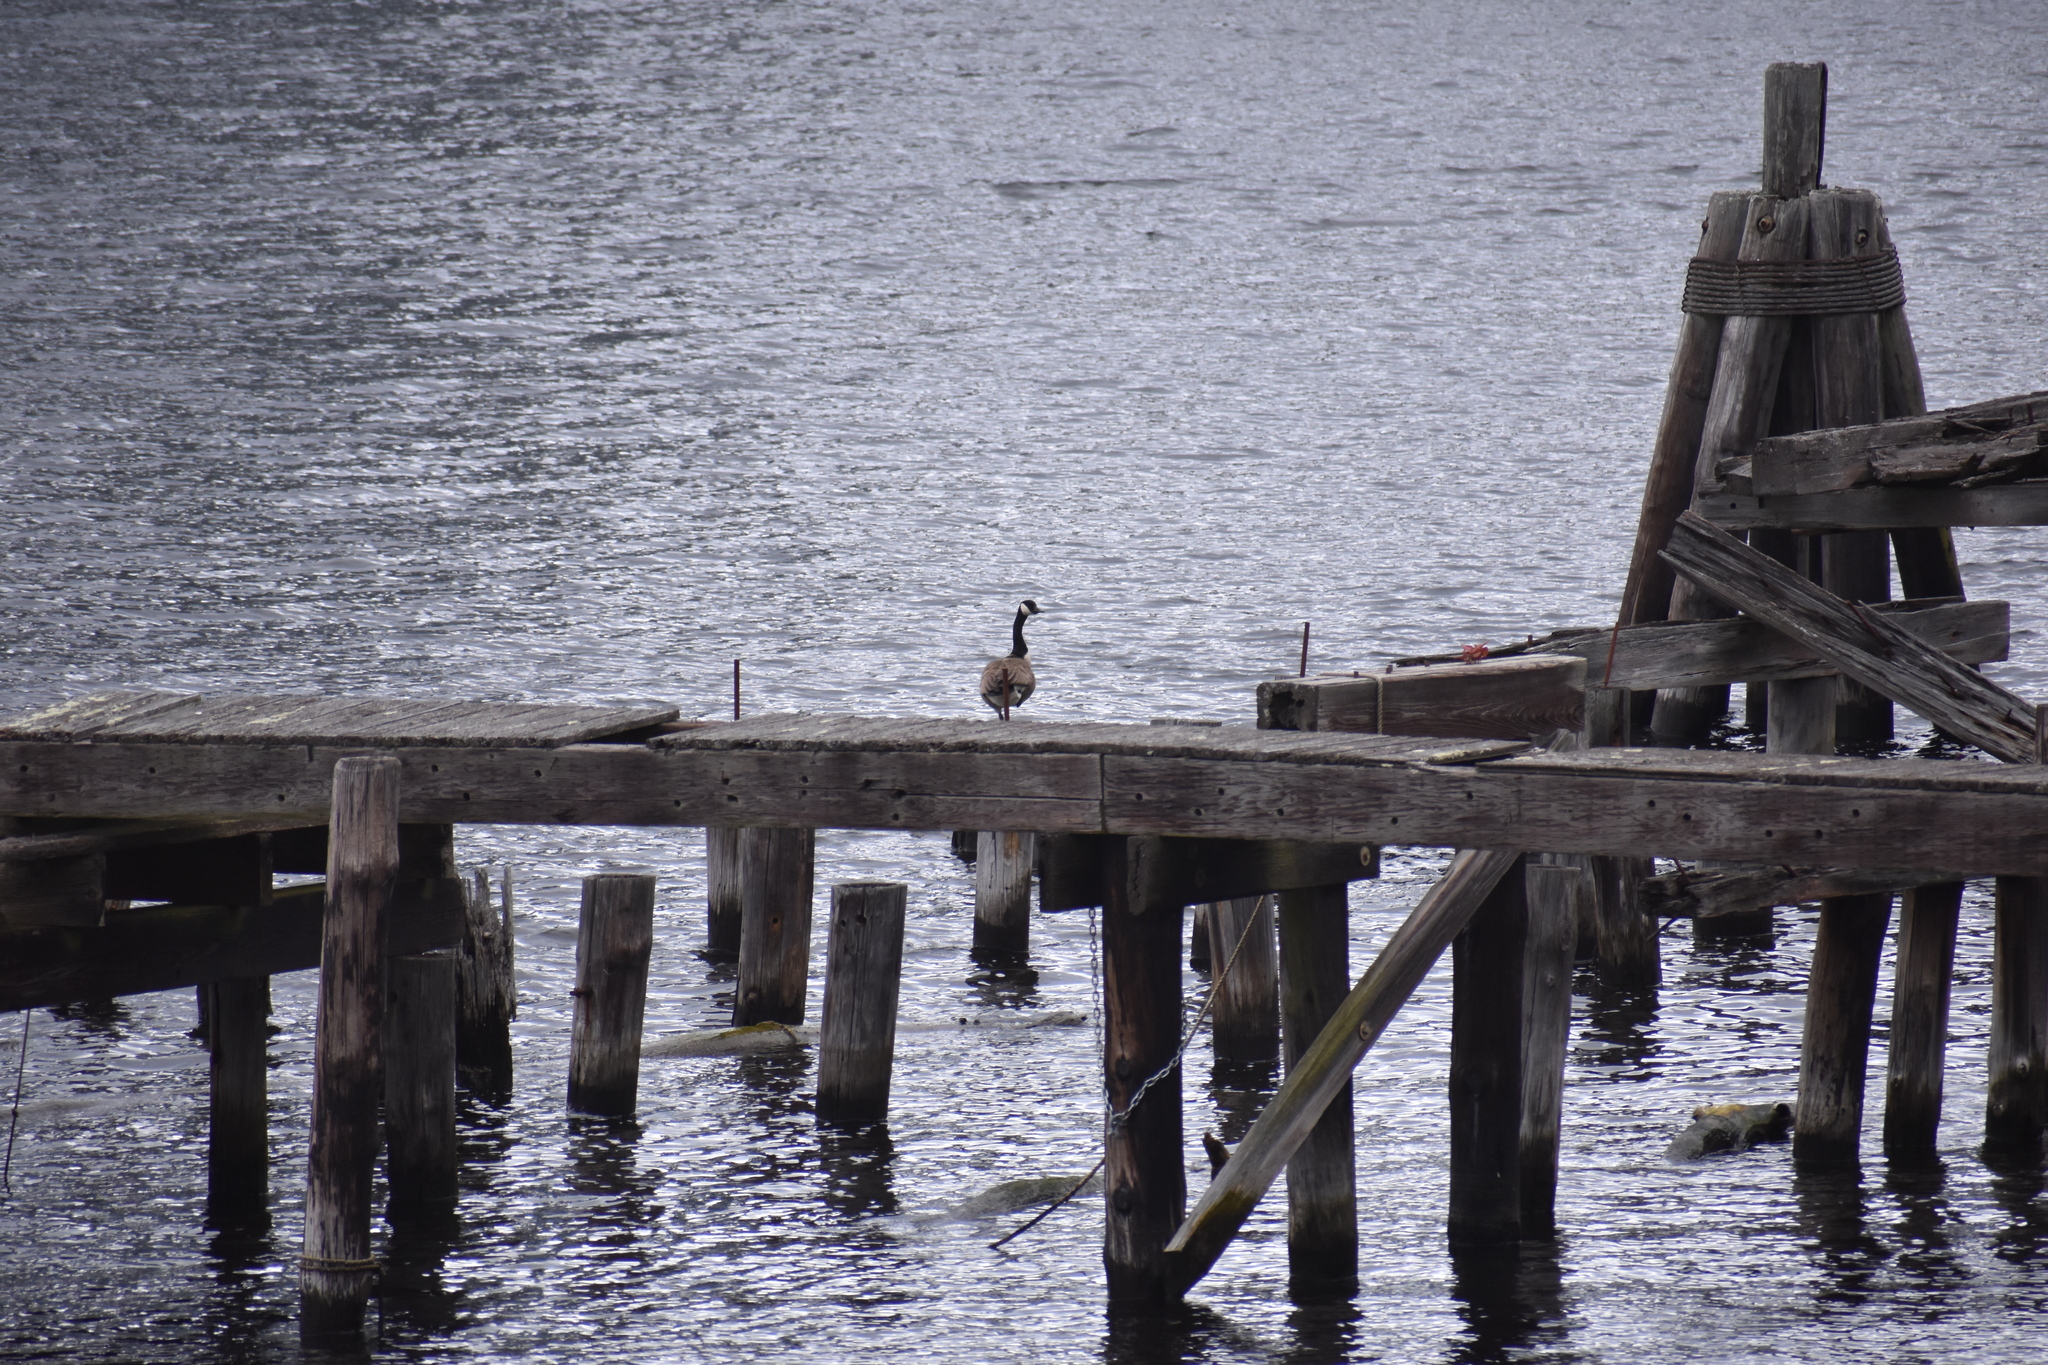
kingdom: Animalia
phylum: Chordata
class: Aves
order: Anseriformes
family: Anatidae
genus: Branta
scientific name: Branta canadensis
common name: Canada goose
